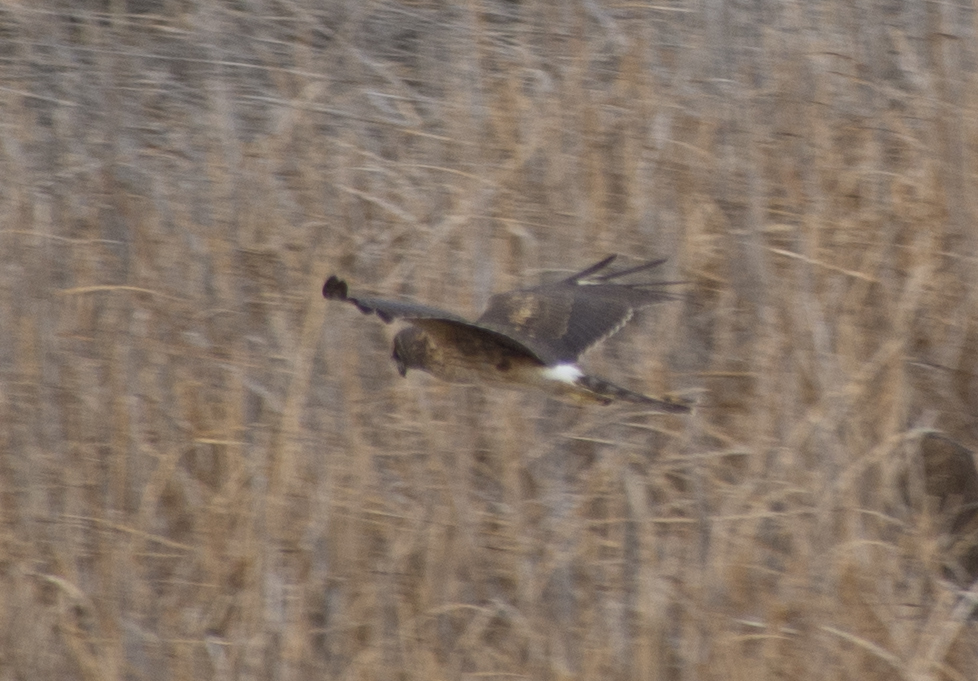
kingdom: Animalia
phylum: Chordata
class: Aves
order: Accipitriformes
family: Accipitridae
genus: Circus
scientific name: Circus cyaneus
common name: Hen harrier
